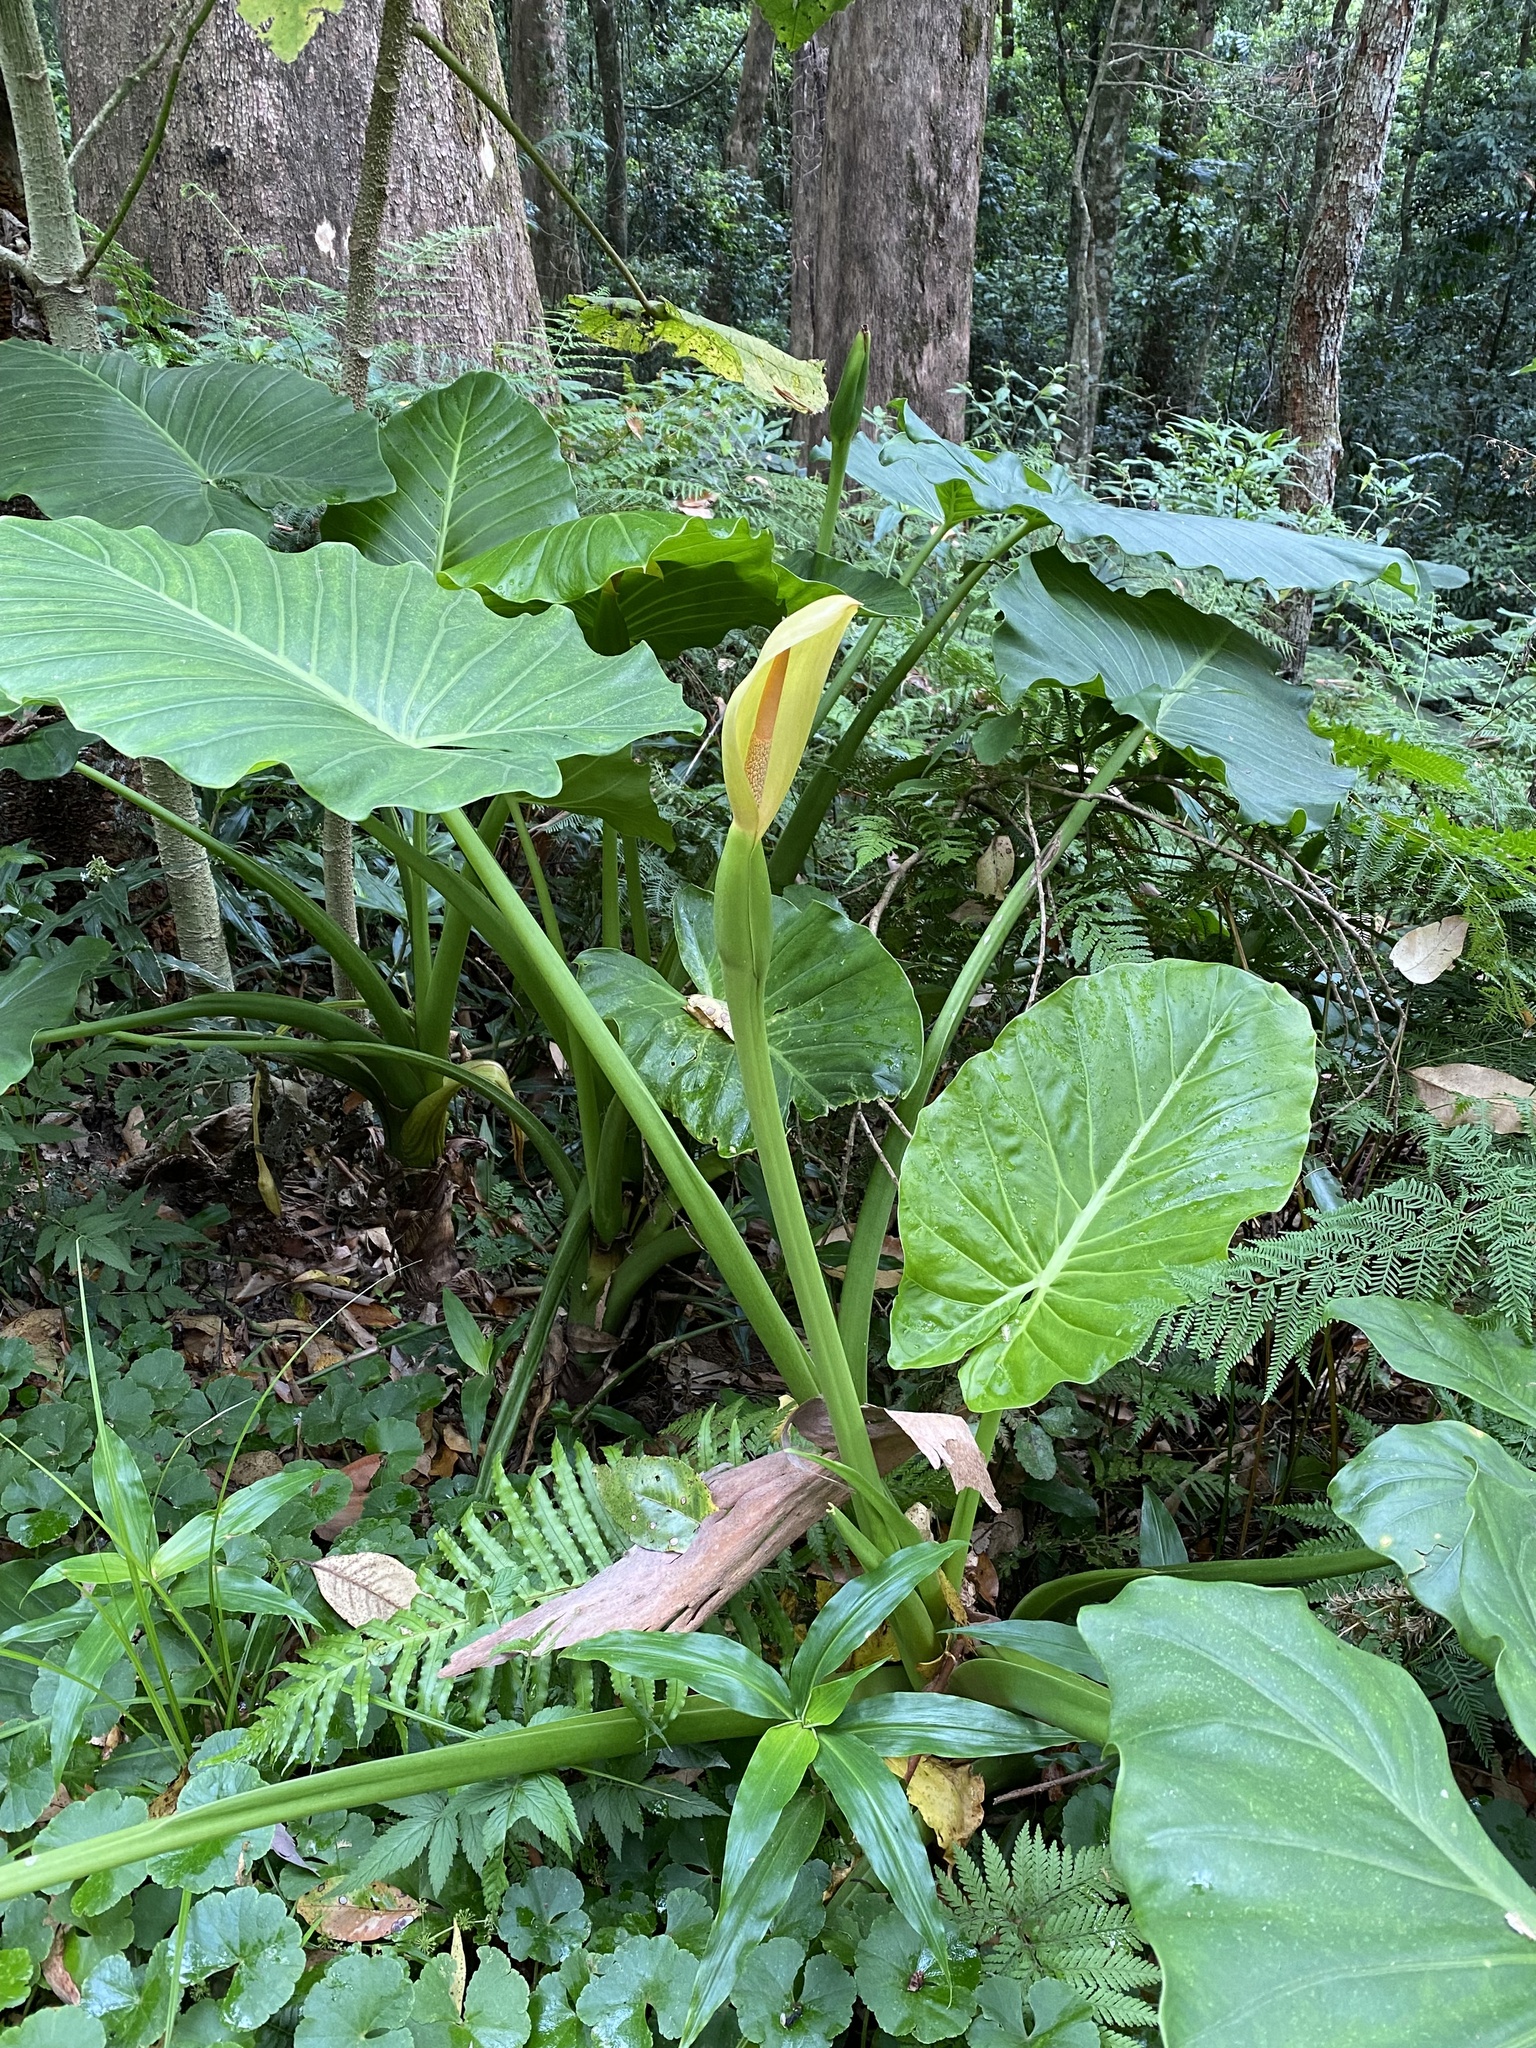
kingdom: Plantae
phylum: Tracheophyta
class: Liliopsida
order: Alismatales
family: Araceae
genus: Alocasia
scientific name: Alocasia brisbanensis
